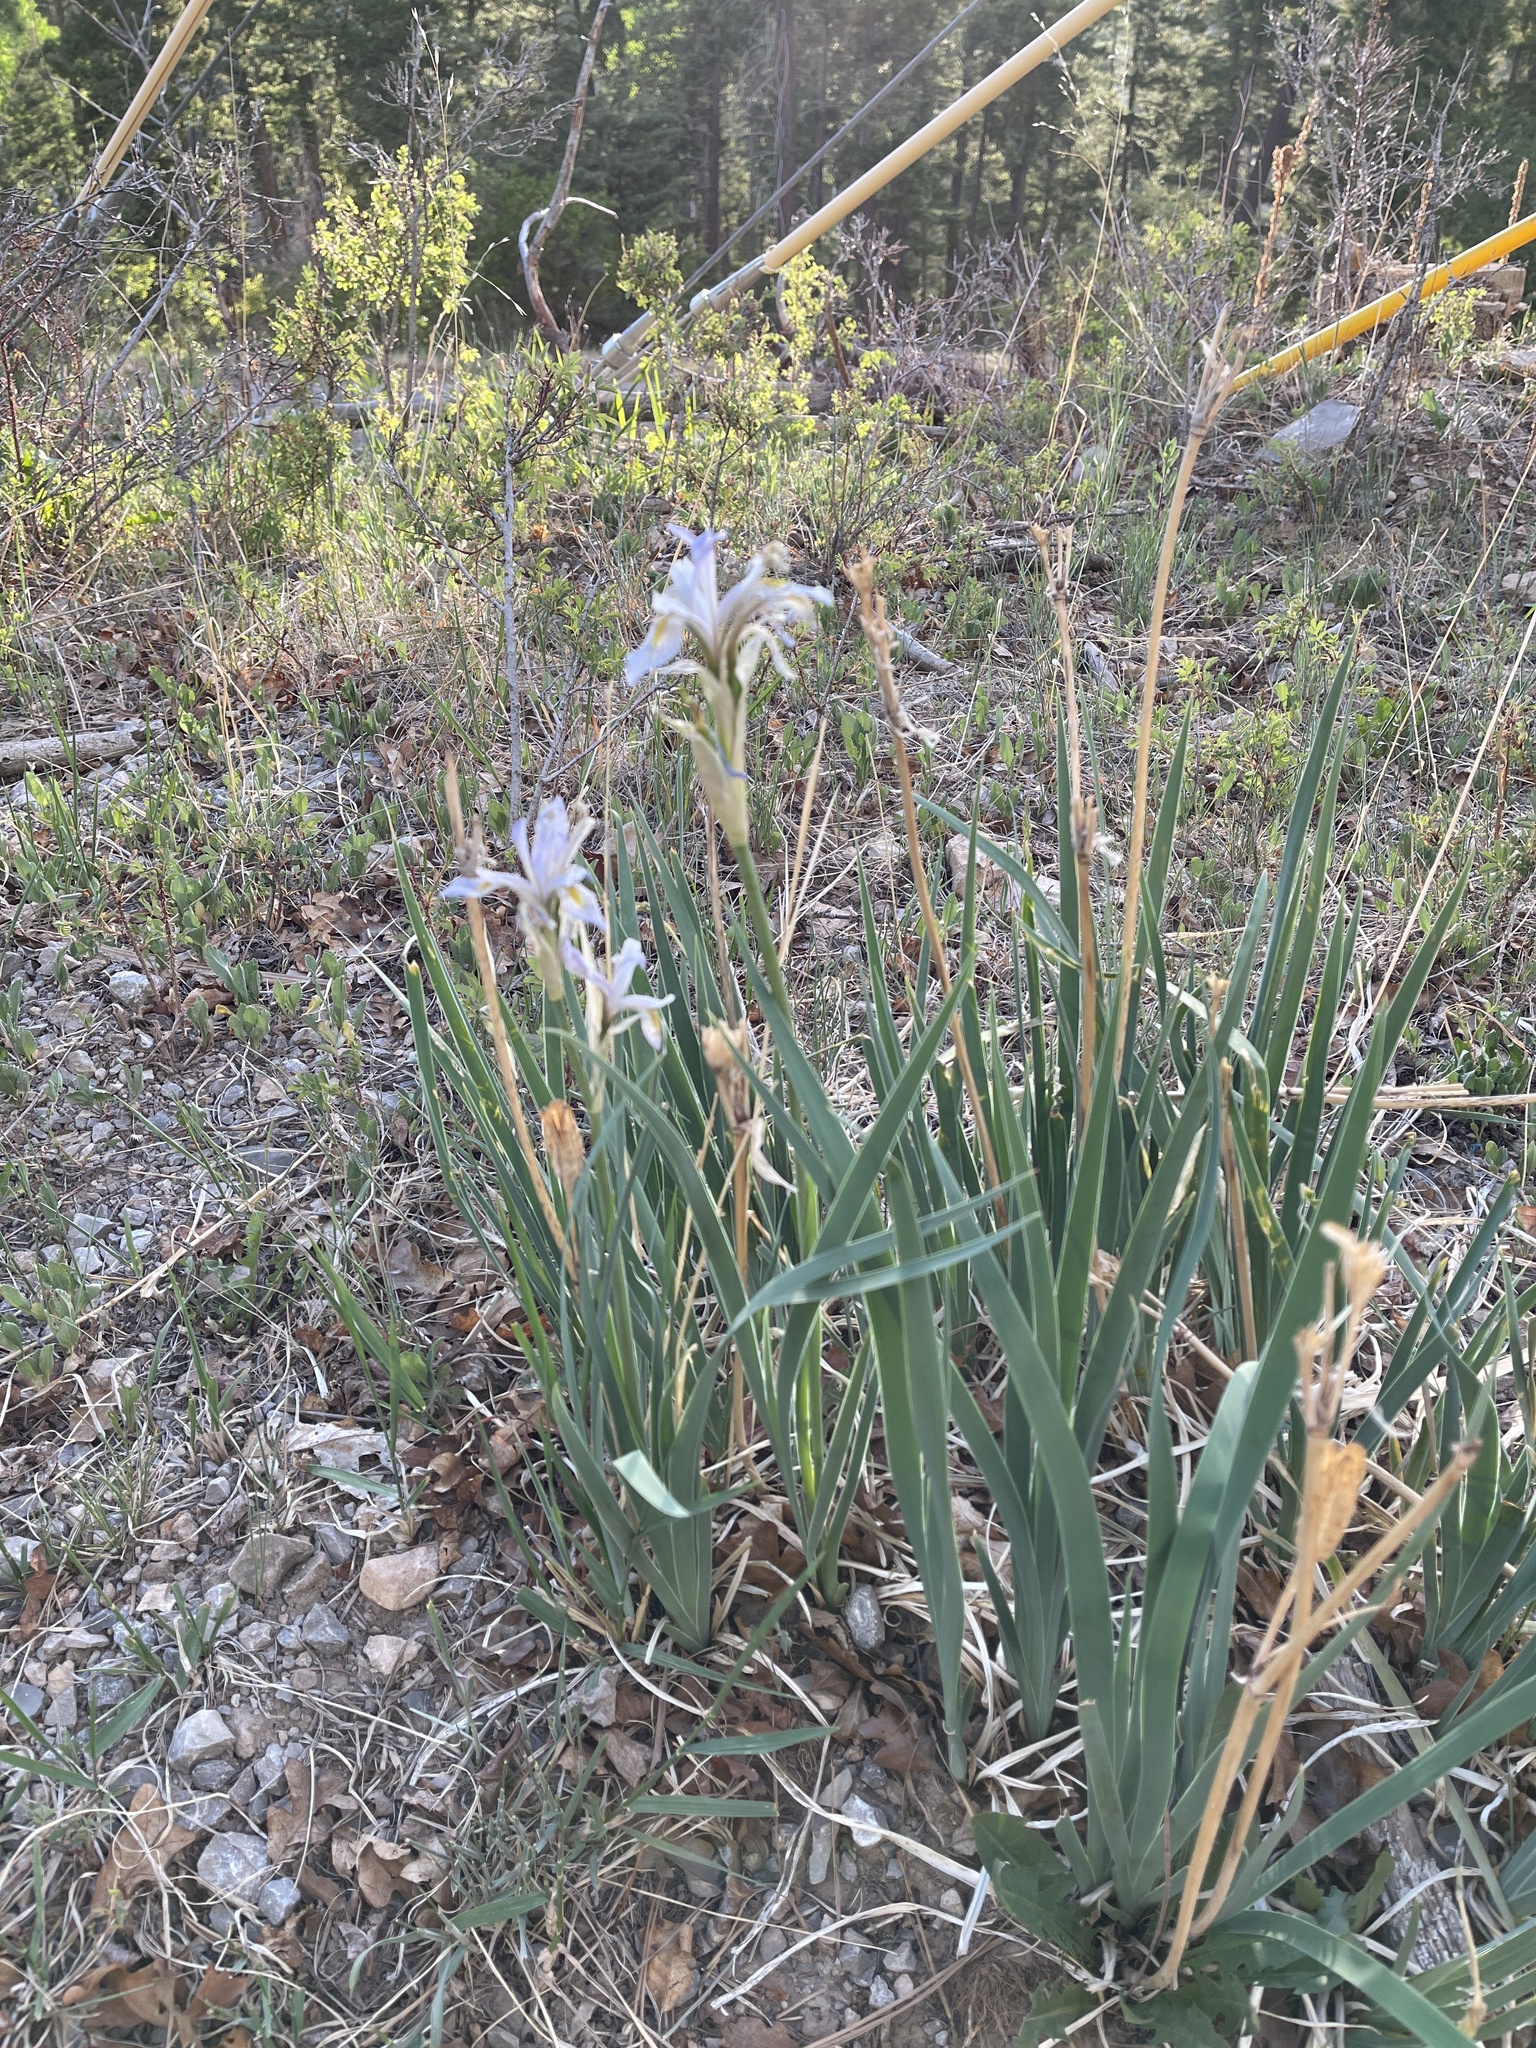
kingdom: Plantae
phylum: Tracheophyta
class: Liliopsida
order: Asparagales
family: Iridaceae
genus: Iris
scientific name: Iris missouriensis
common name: Rocky mountain iris
